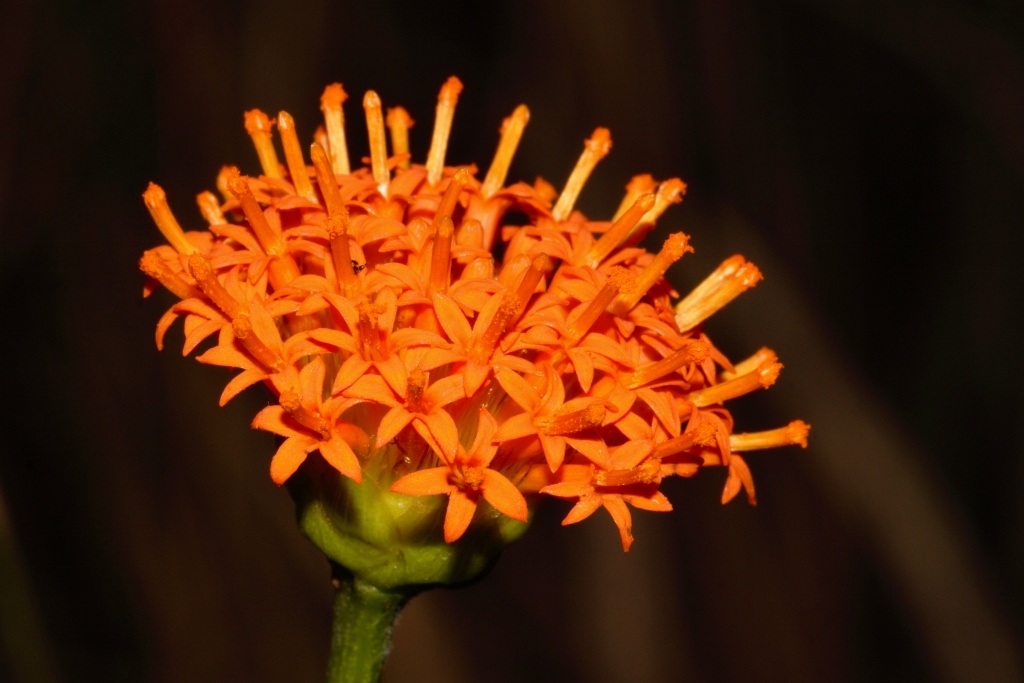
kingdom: Plantae
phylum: Tracheophyta
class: Magnoliopsida
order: Asterales
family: Asteraceae
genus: Hypericophyllum
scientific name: Hypericophyllum compositarum
